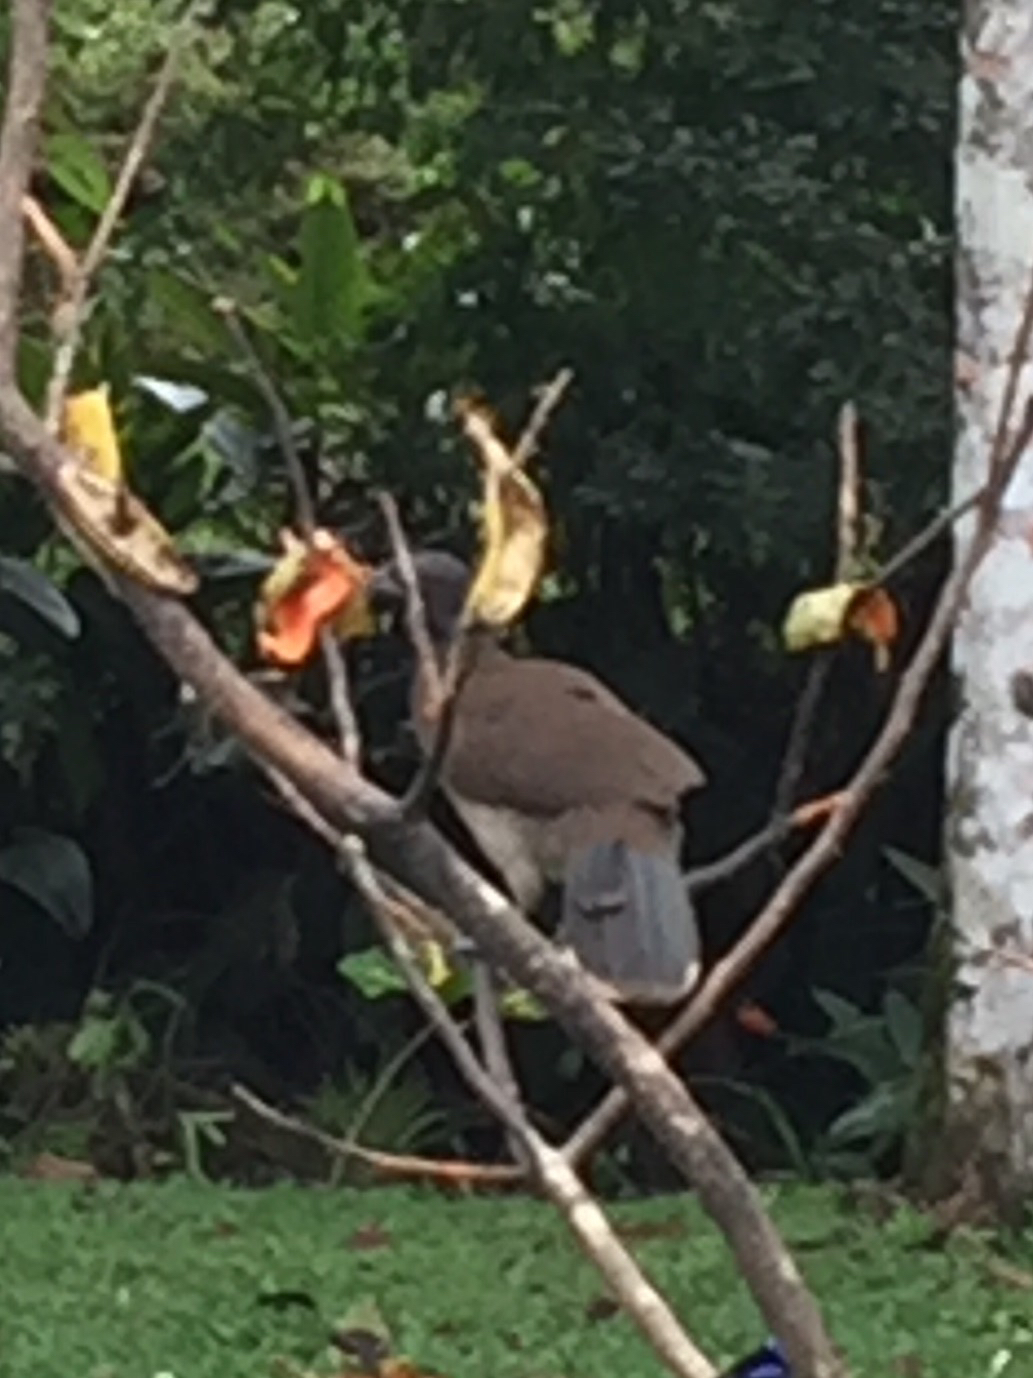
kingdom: Animalia
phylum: Chordata
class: Aves
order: Galliformes
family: Cracidae
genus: Ortalis
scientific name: Ortalis cinereiceps
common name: Grey-headed chachalaca
